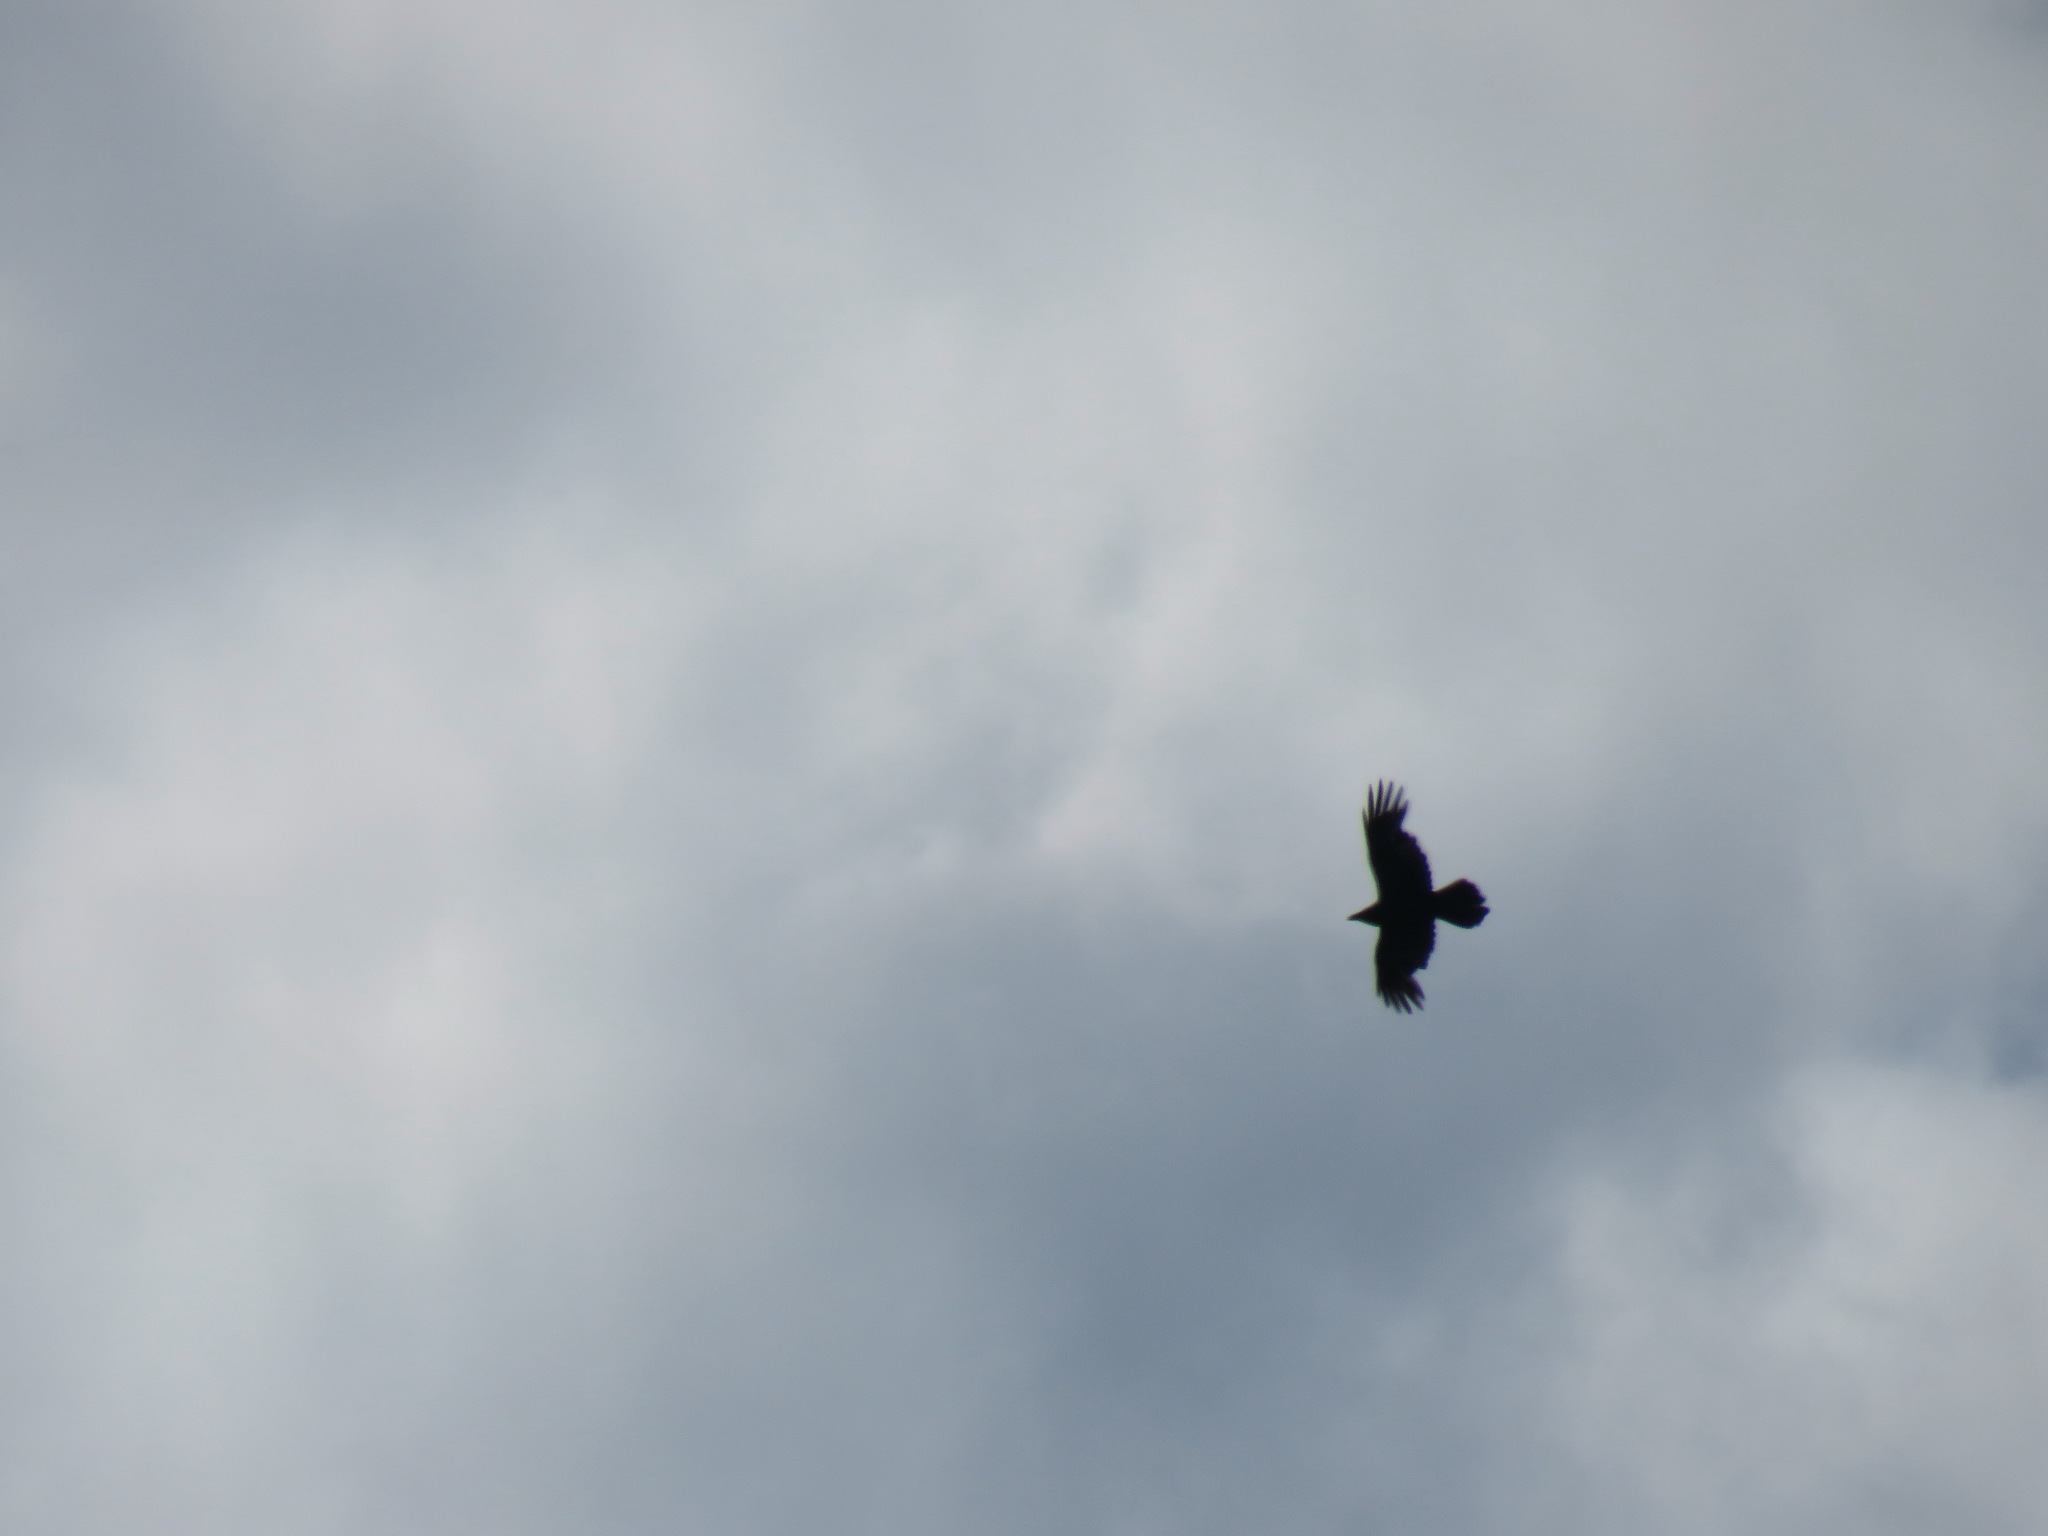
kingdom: Animalia
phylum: Chordata
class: Aves
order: Passeriformes
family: Corvidae
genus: Corvus
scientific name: Corvus corax
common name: Common raven
